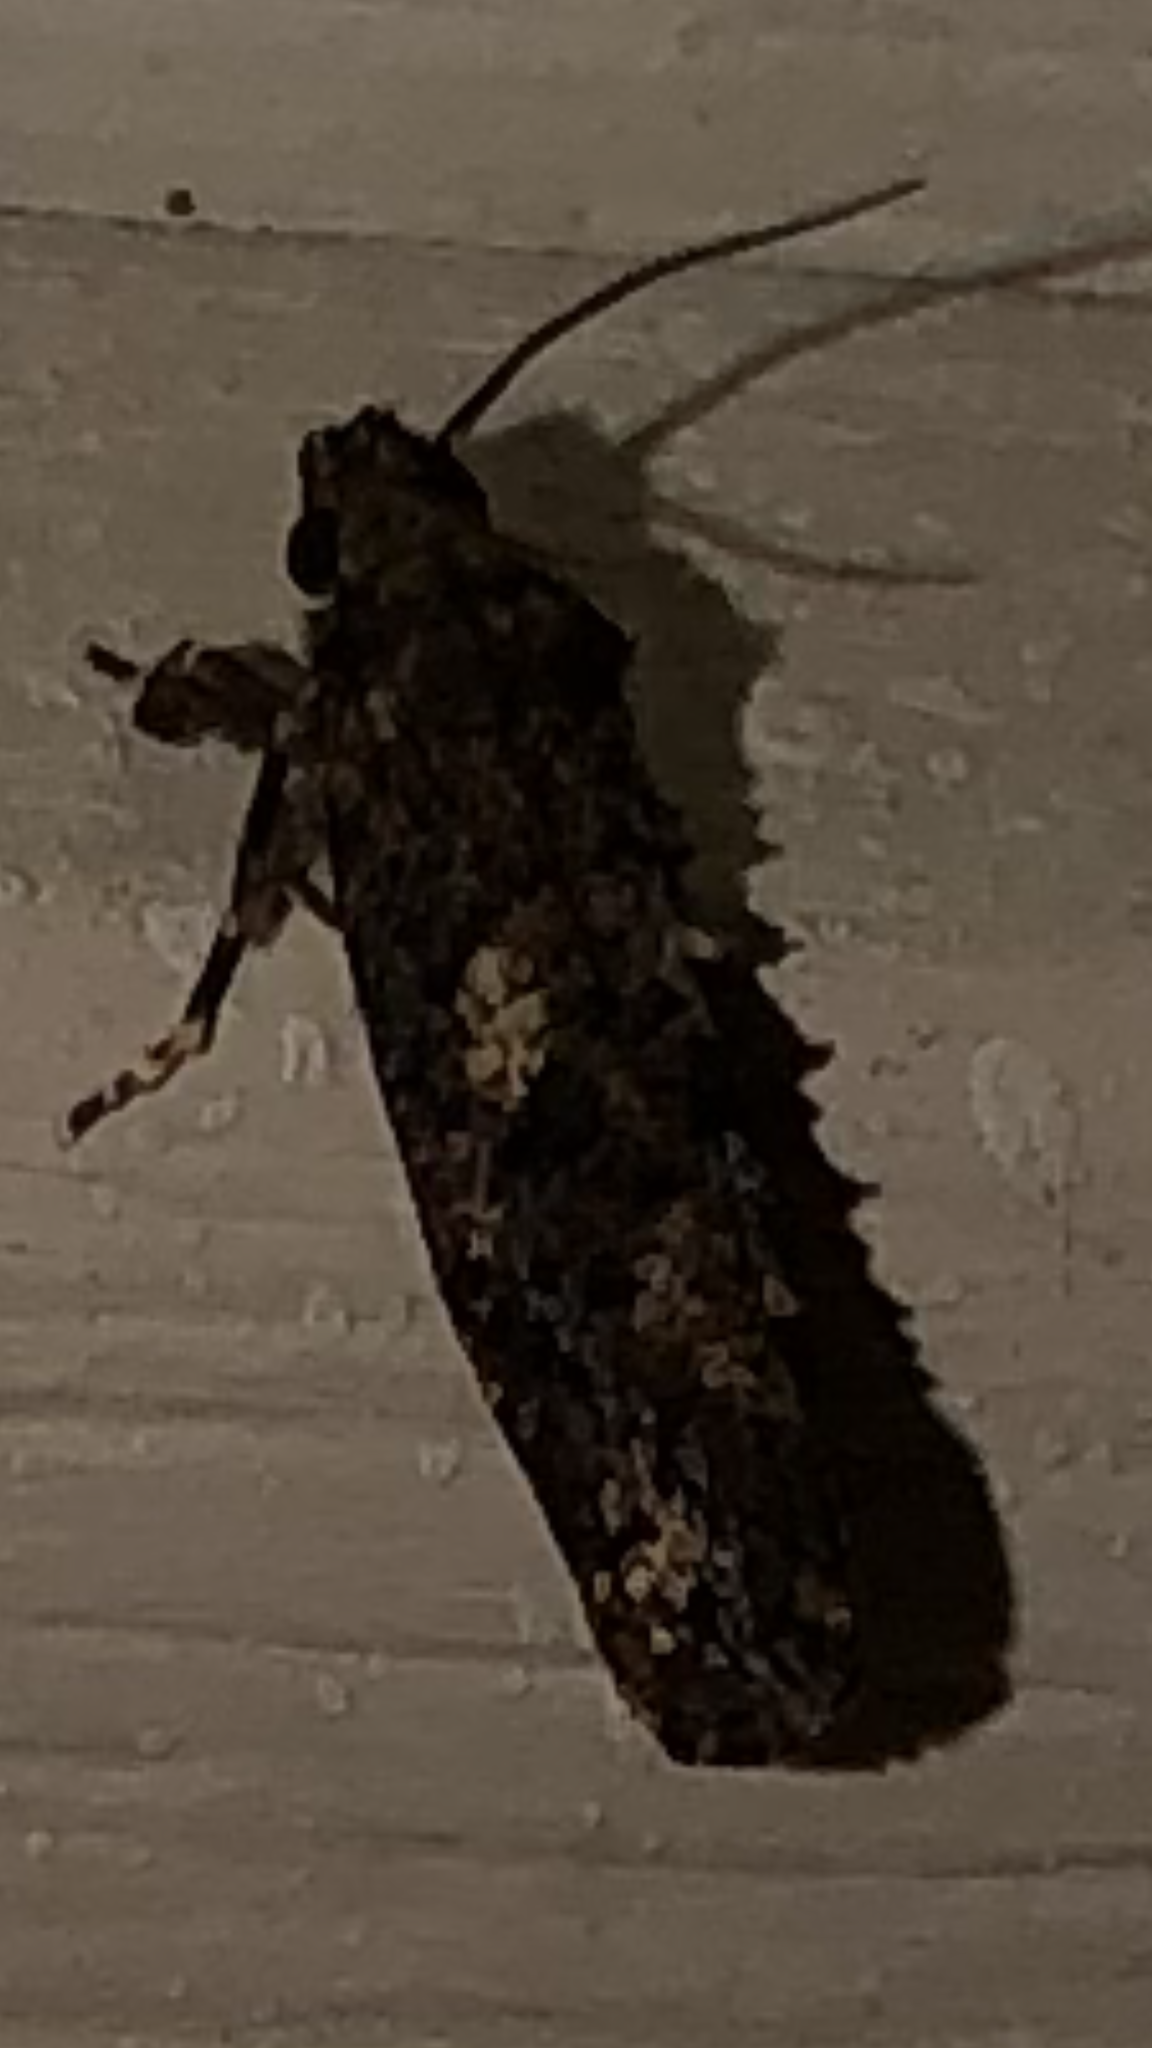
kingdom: Animalia
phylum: Arthropoda
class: Insecta
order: Lepidoptera
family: Tineidae
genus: Acrolophus
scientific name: Acrolophus cressoni
